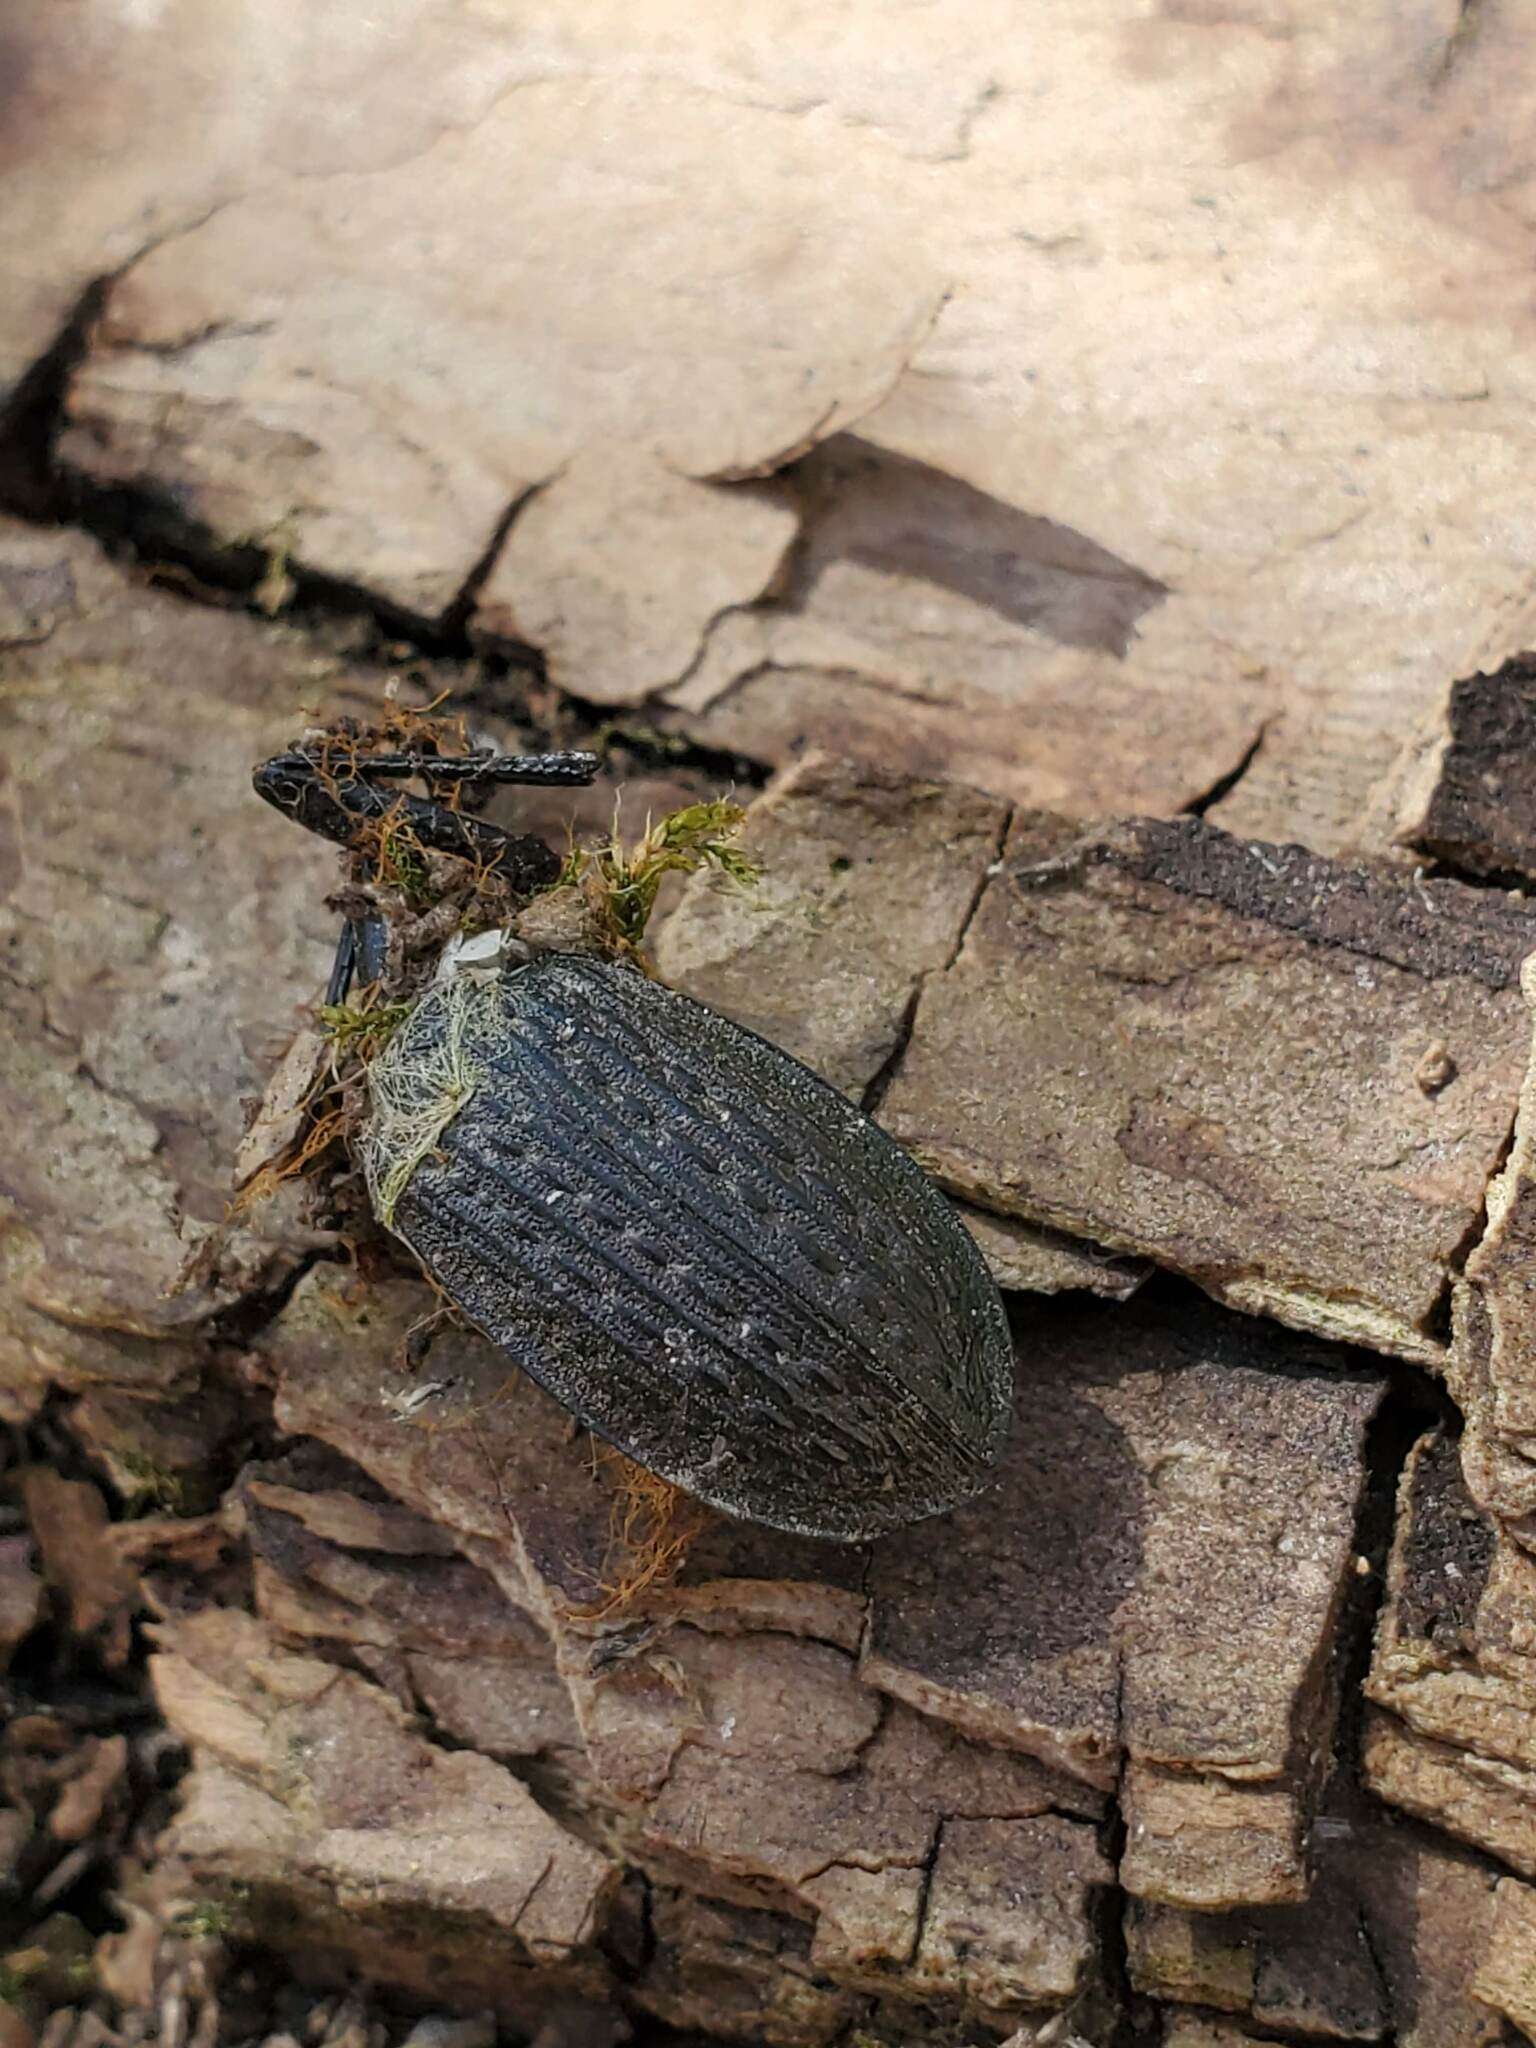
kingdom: Animalia
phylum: Arthropoda
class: Insecta
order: Coleoptera
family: Carabidae
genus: Carabus
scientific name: Carabus granulatus
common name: Granulate ground beetle
